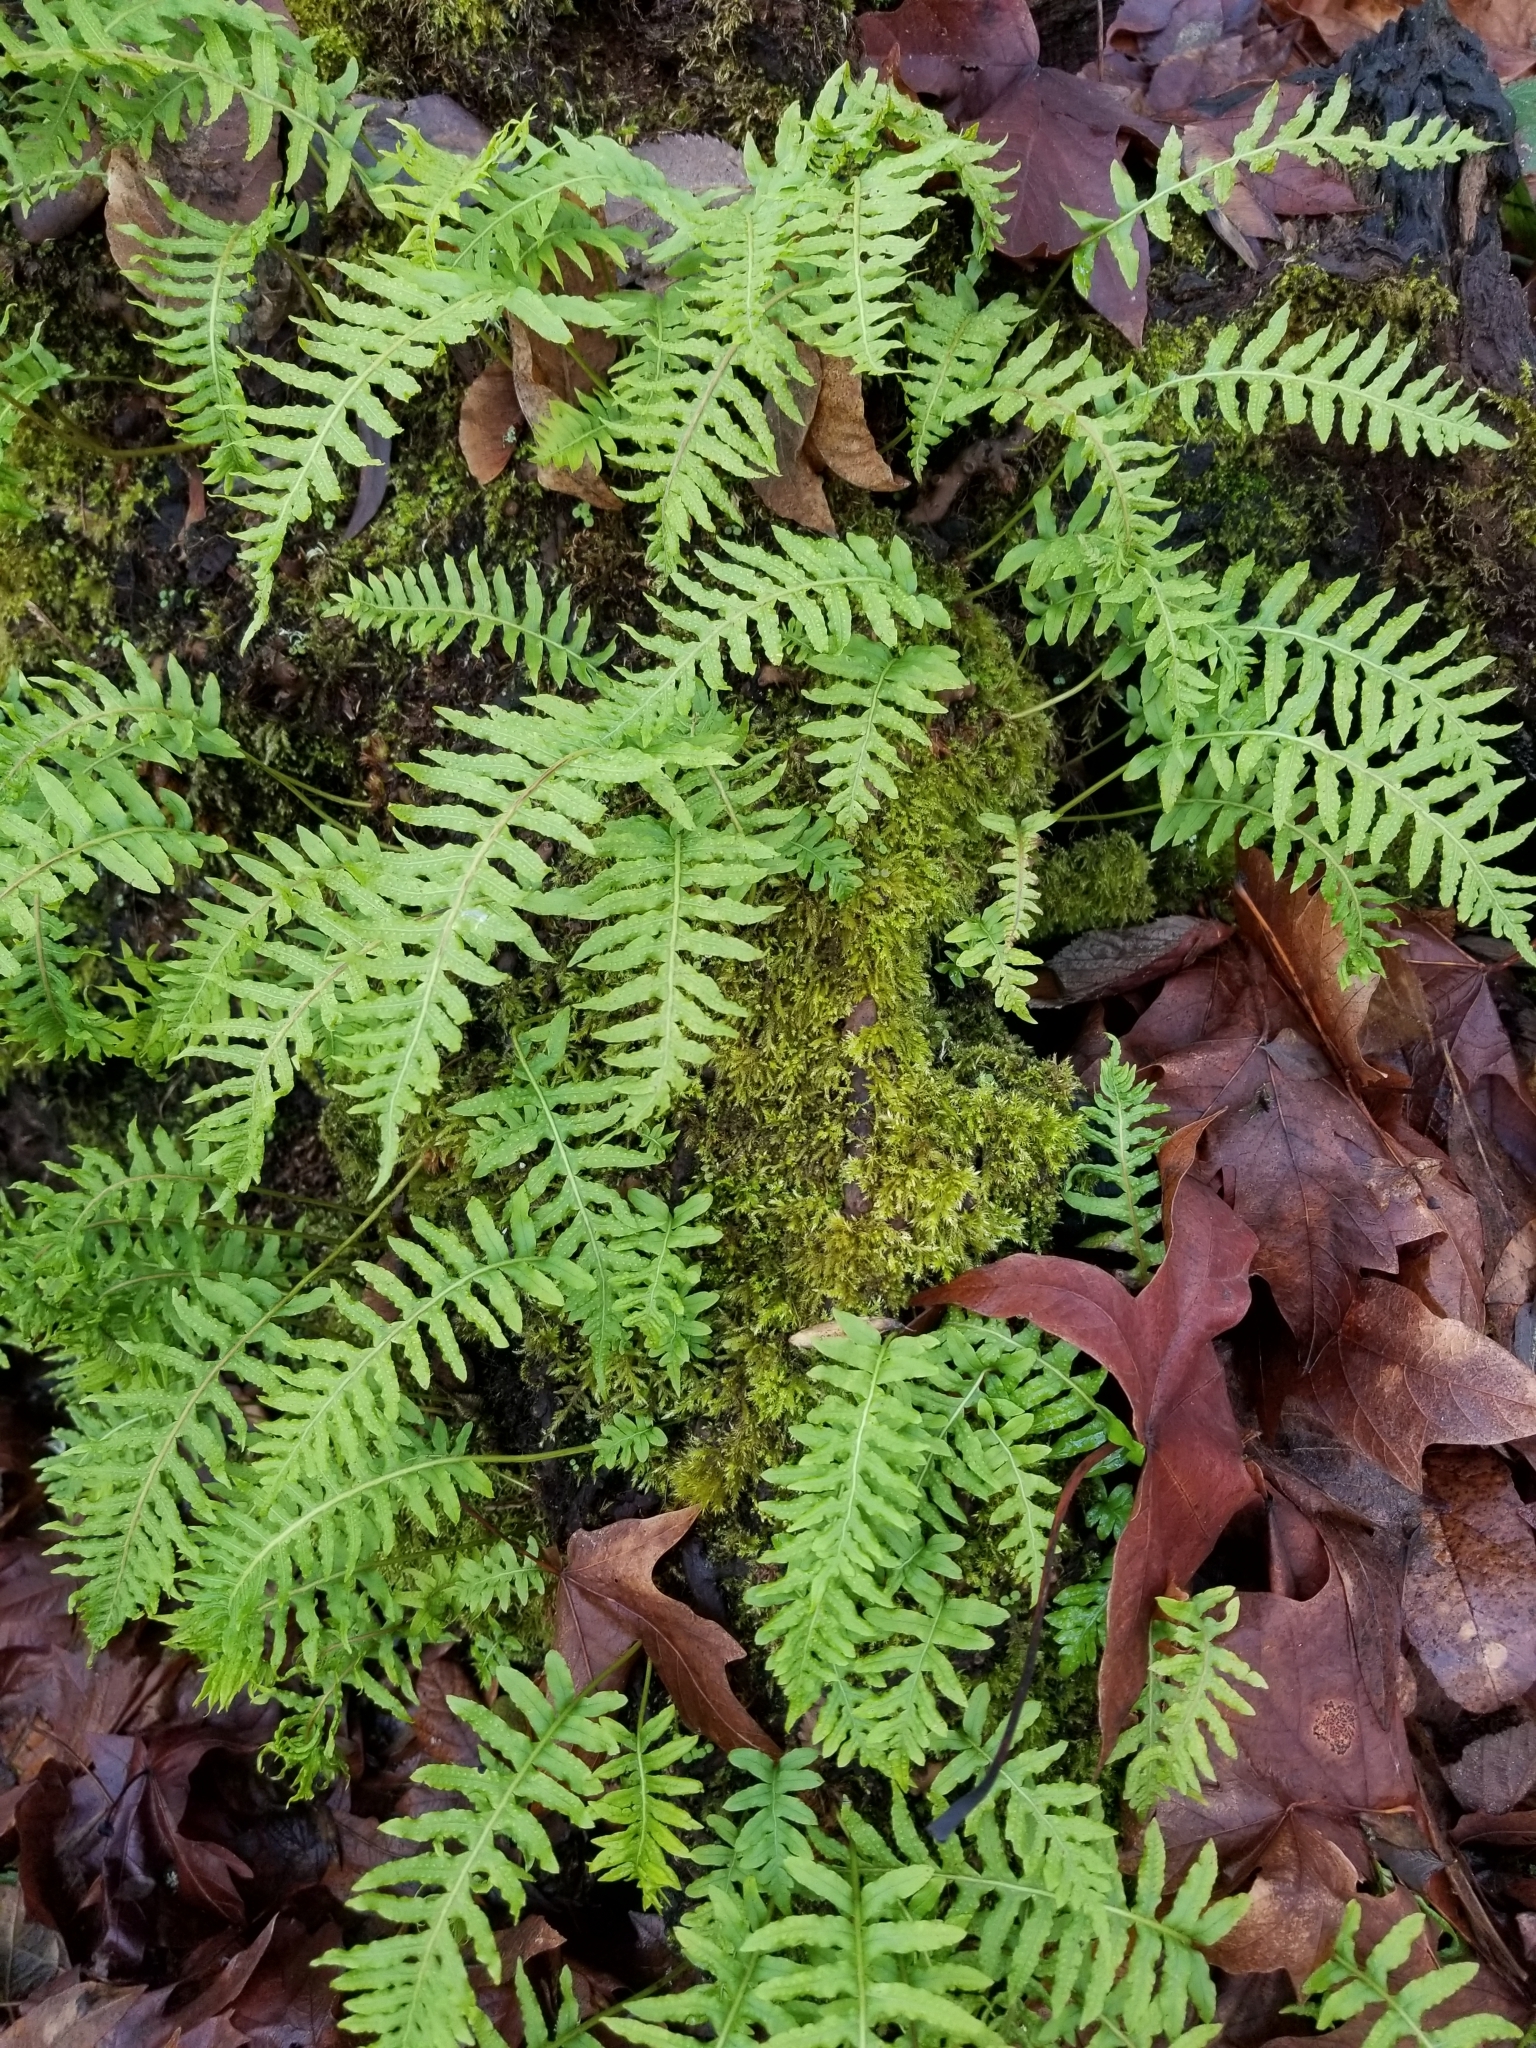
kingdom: Plantae
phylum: Tracheophyta
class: Polypodiopsida
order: Polypodiales
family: Polypodiaceae
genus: Polypodium
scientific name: Polypodium glycyrrhiza
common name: Licorice fern
